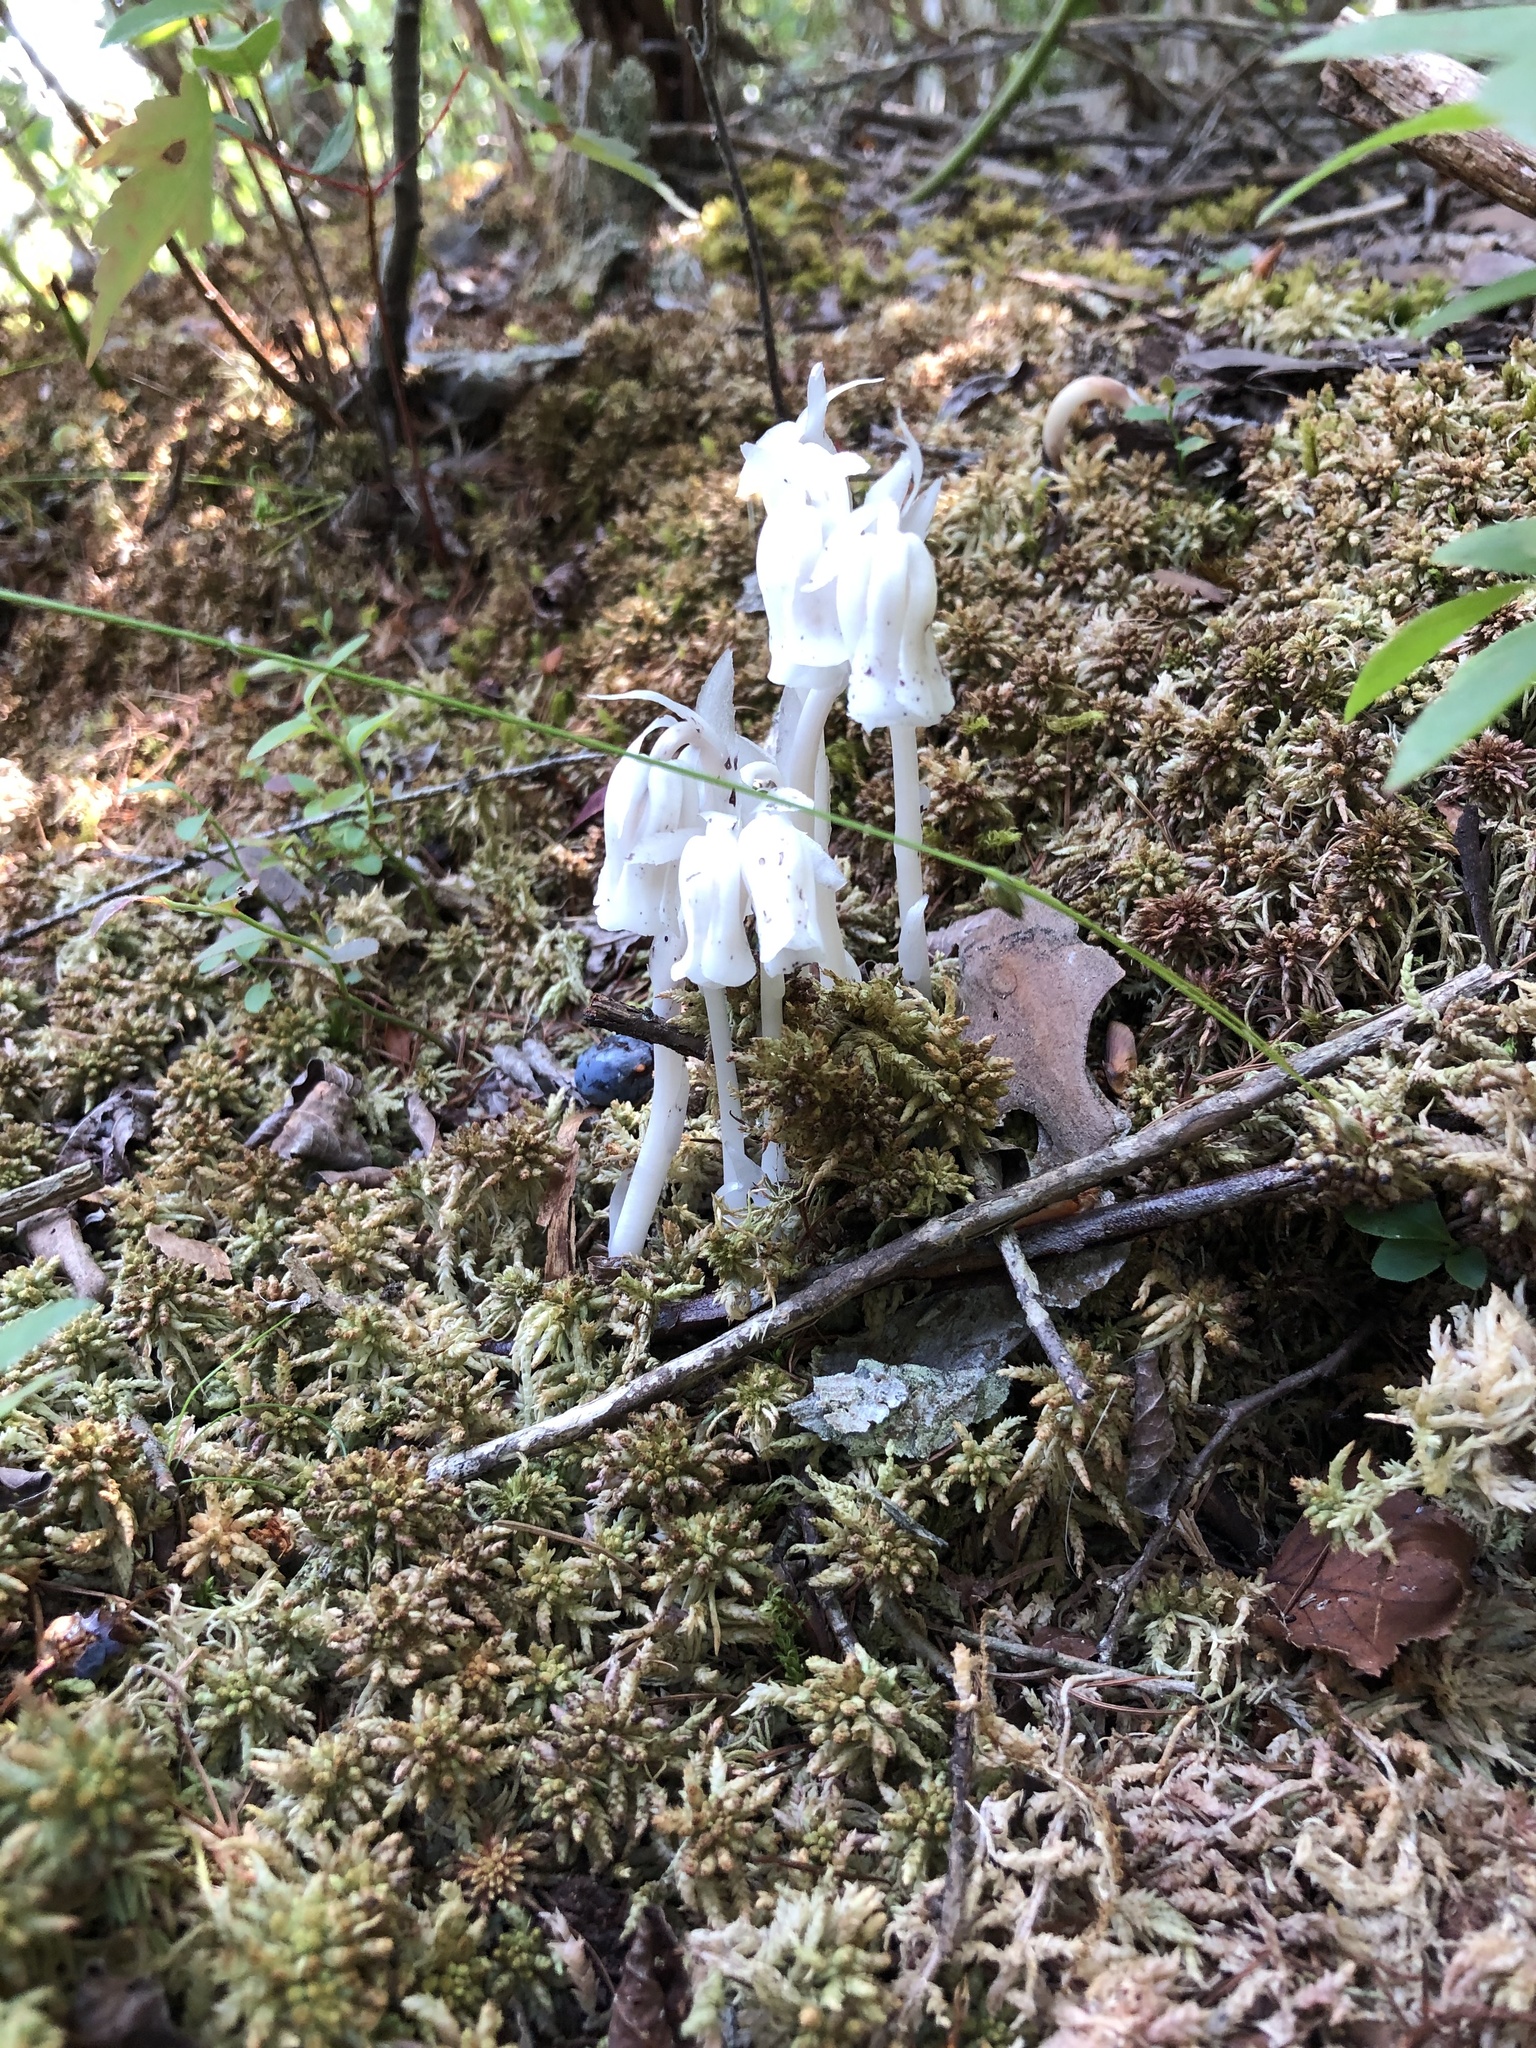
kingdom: Plantae
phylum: Tracheophyta
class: Magnoliopsida
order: Ericales
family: Ericaceae
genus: Monotropa
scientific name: Monotropa uniflora
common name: Convulsion root
